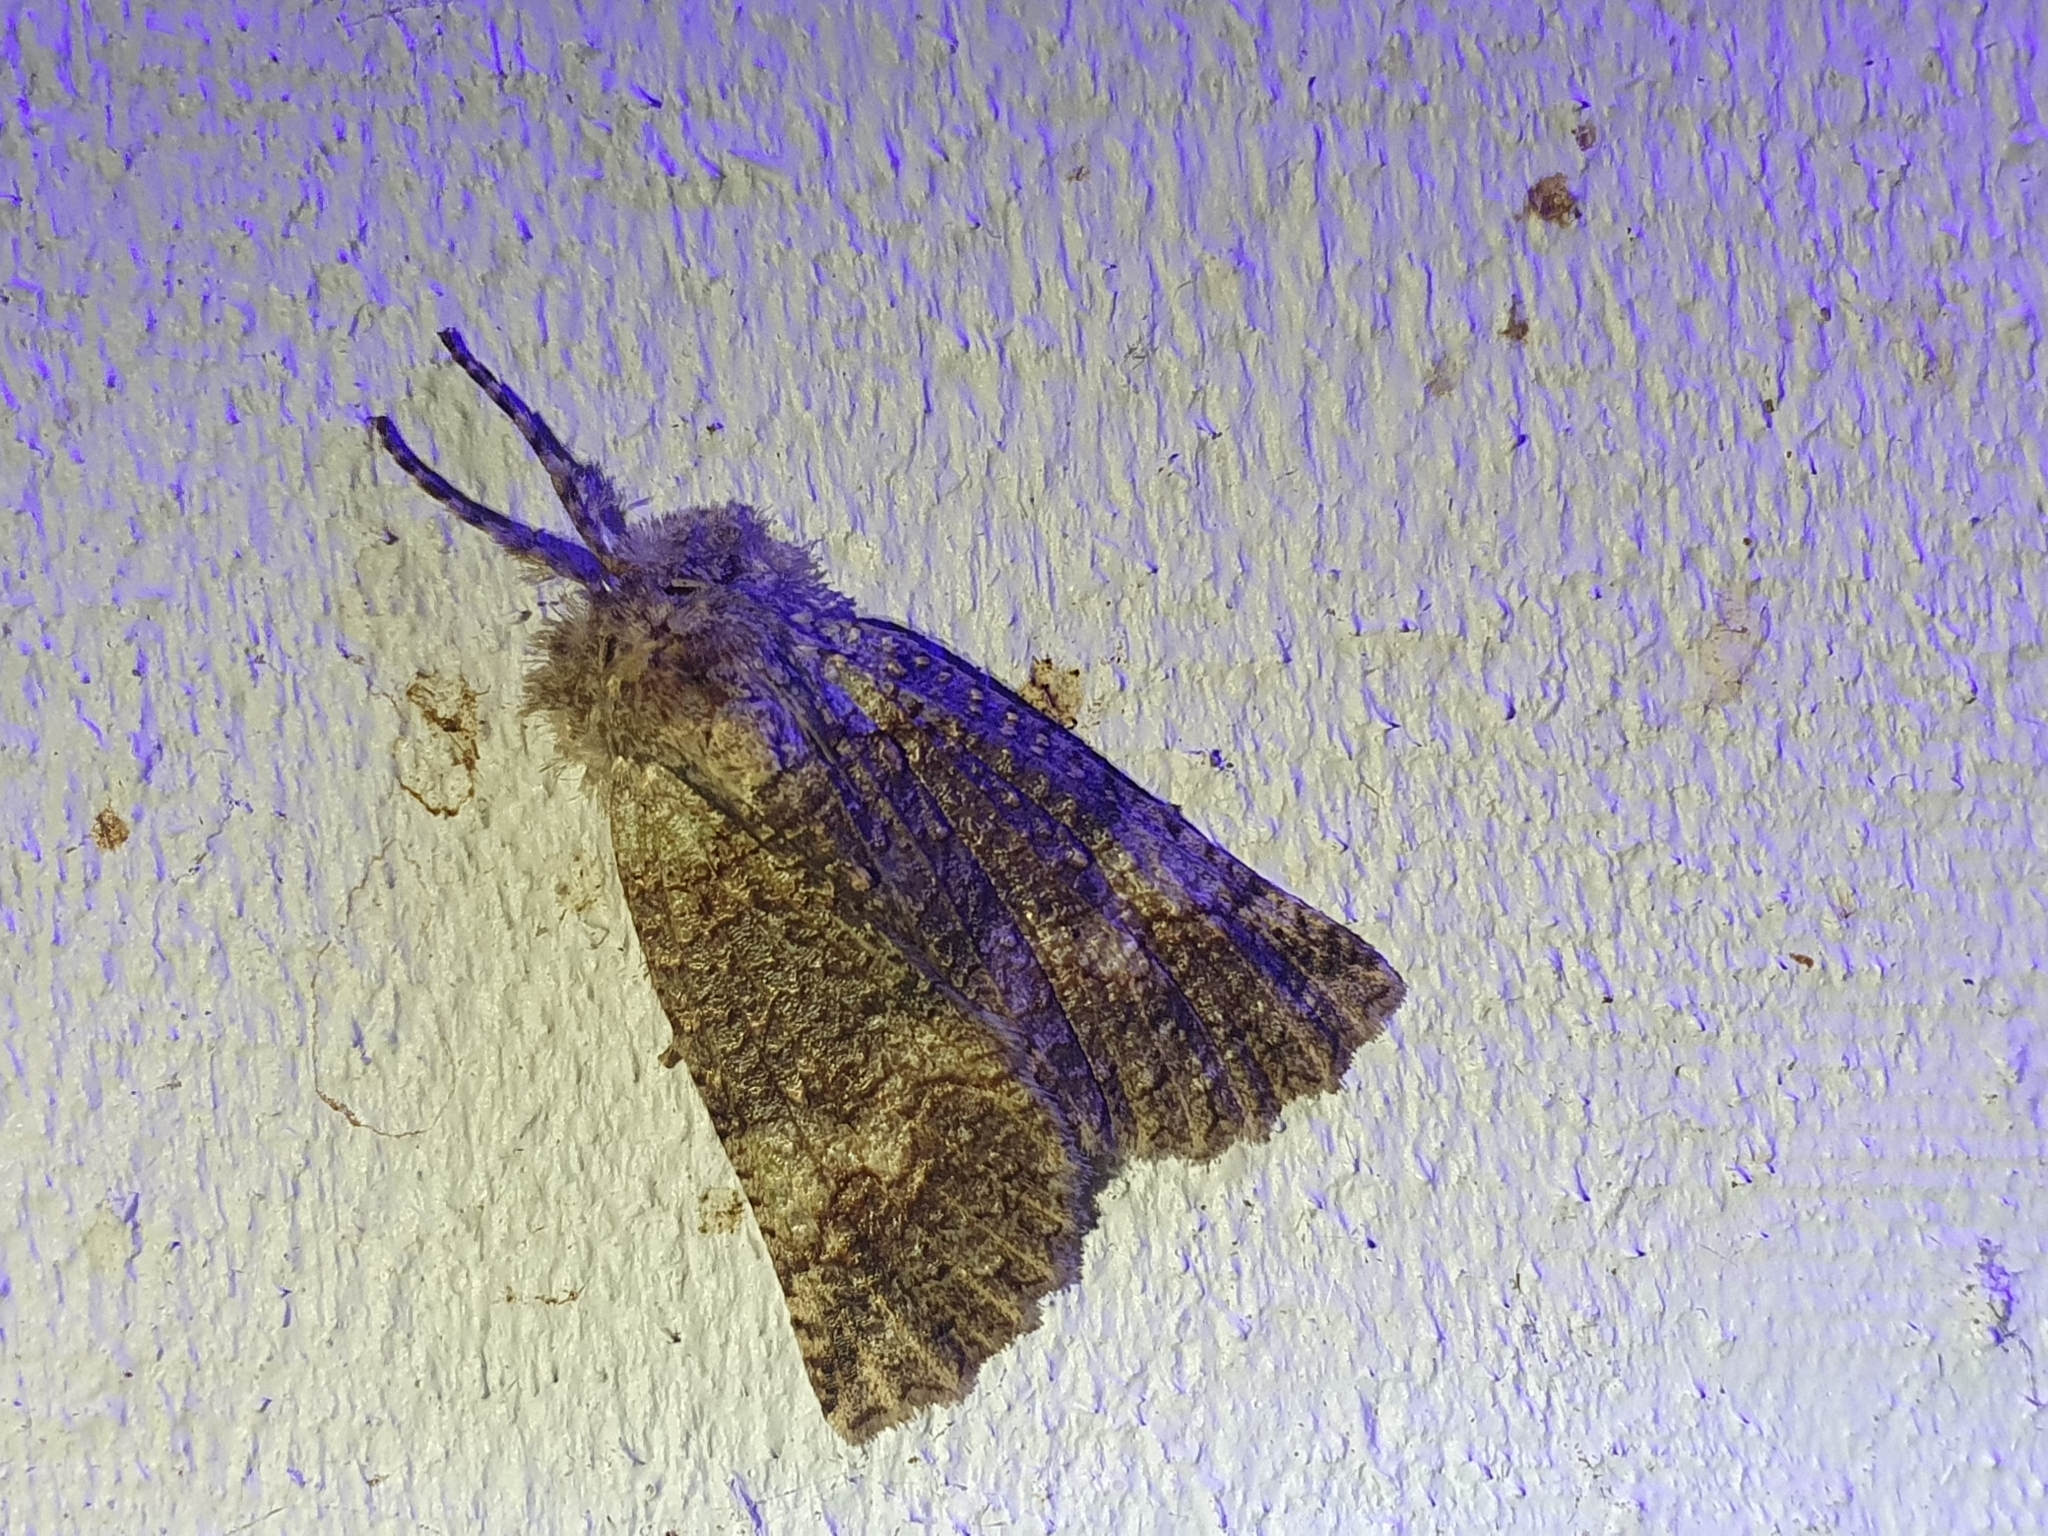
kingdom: Animalia
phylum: Arthropoda
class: Insecta
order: Lepidoptera
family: Geometridae
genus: Declana
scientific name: Declana floccosa
